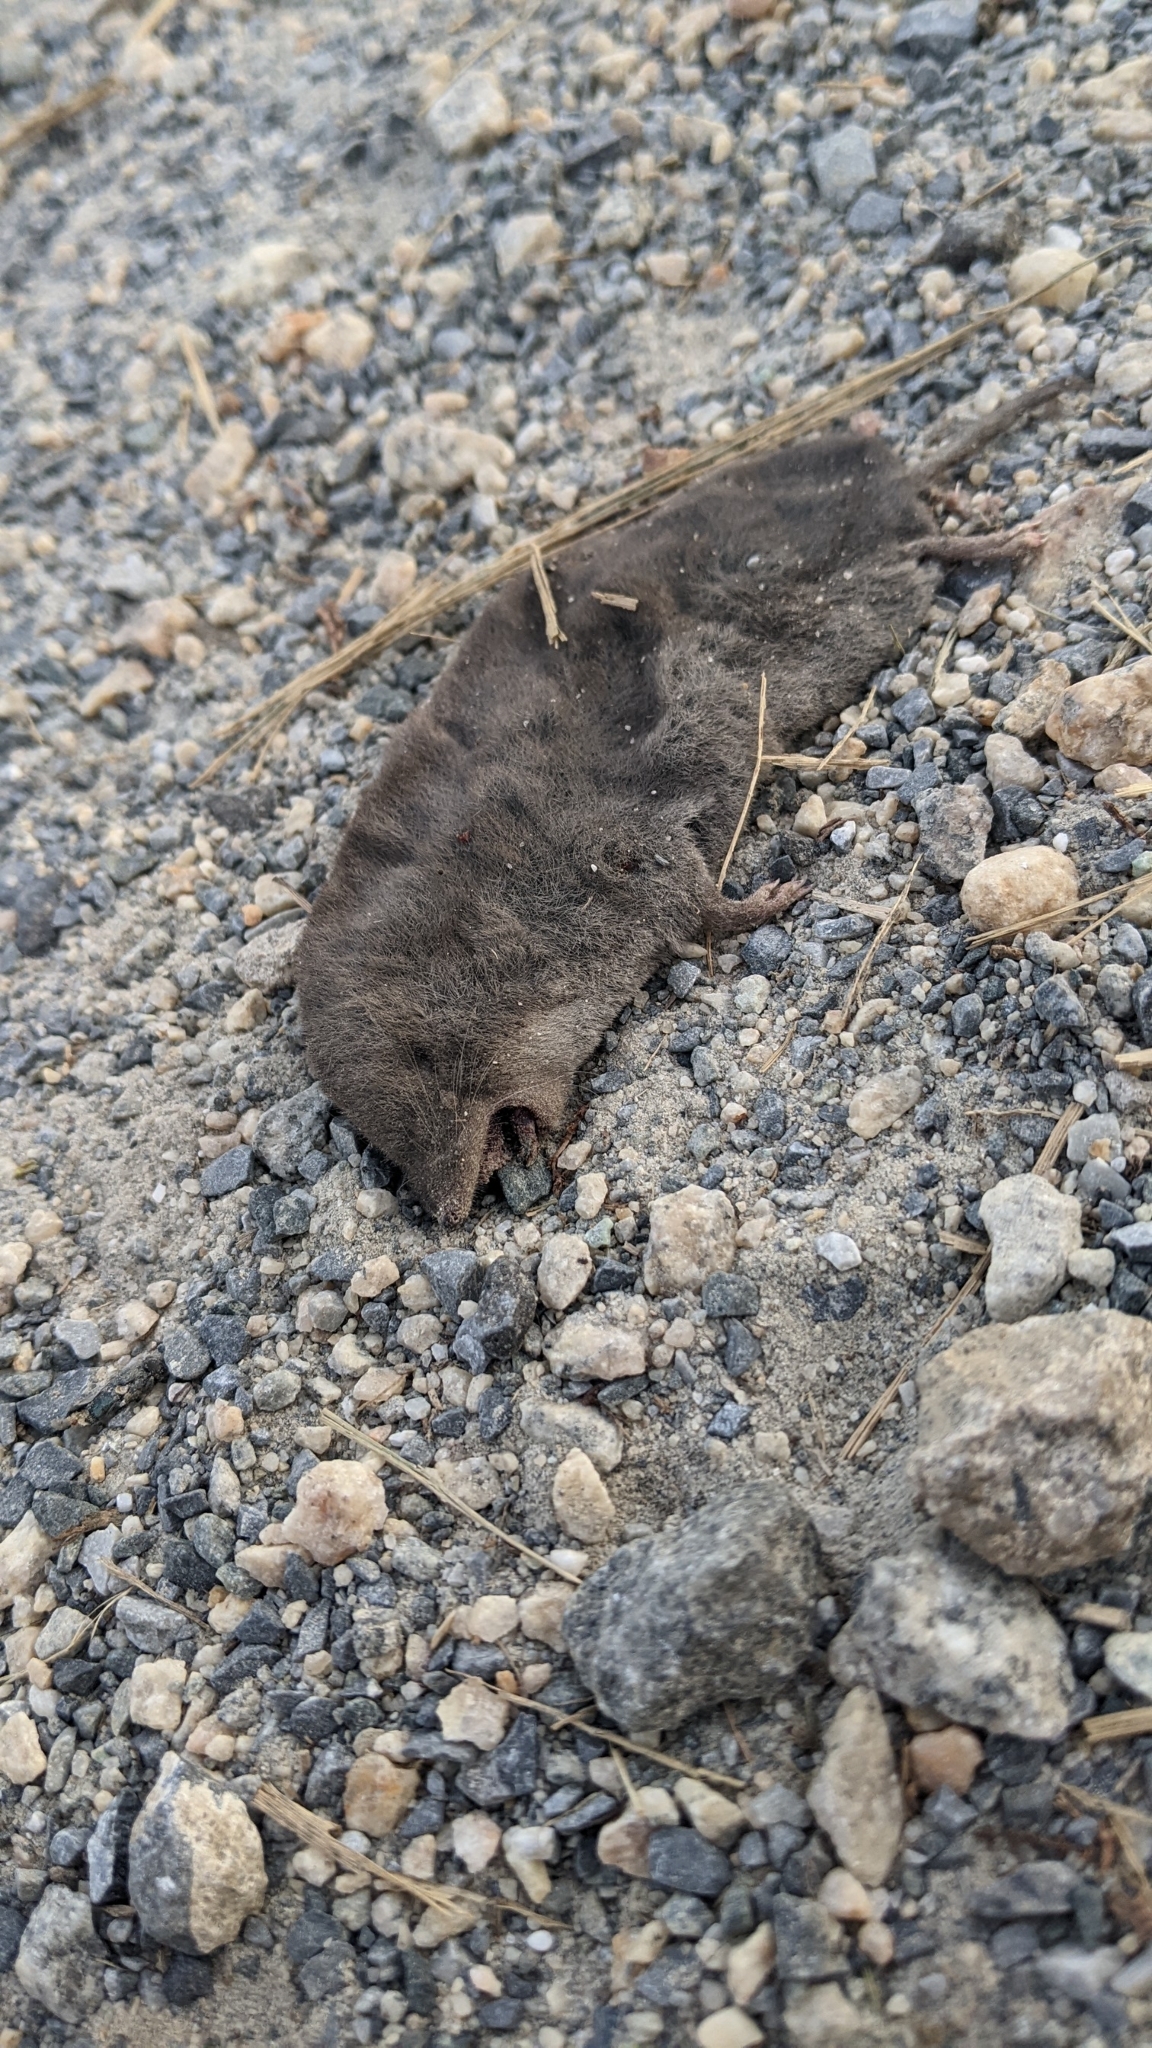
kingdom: Animalia
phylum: Chordata
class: Mammalia
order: Soricomorpha
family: Soricidae
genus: Blarina
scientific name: Blarina brevicauda
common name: Northern short-tailed shrew
